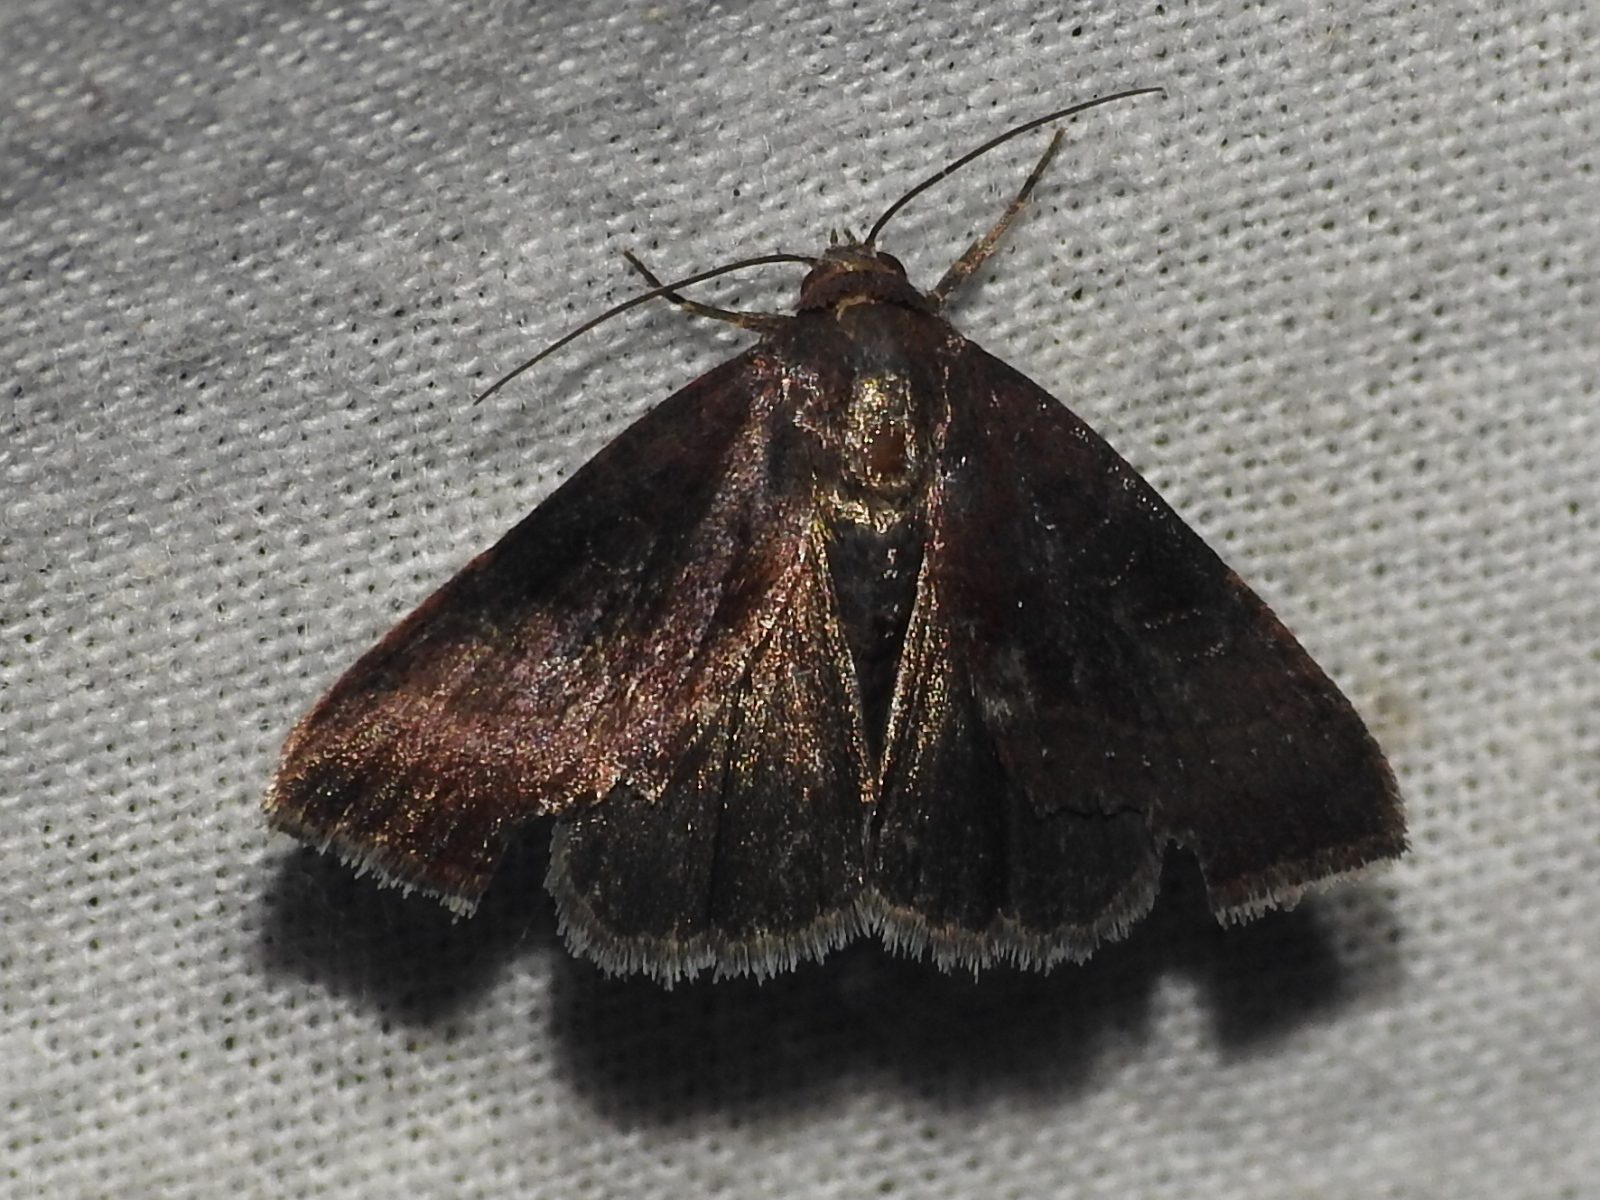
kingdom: Animalia
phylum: Arthropoda
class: Insecta
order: Lepidoptera
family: Noctuidae
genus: Galgula
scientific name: Galgula partita
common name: Wedgeling
